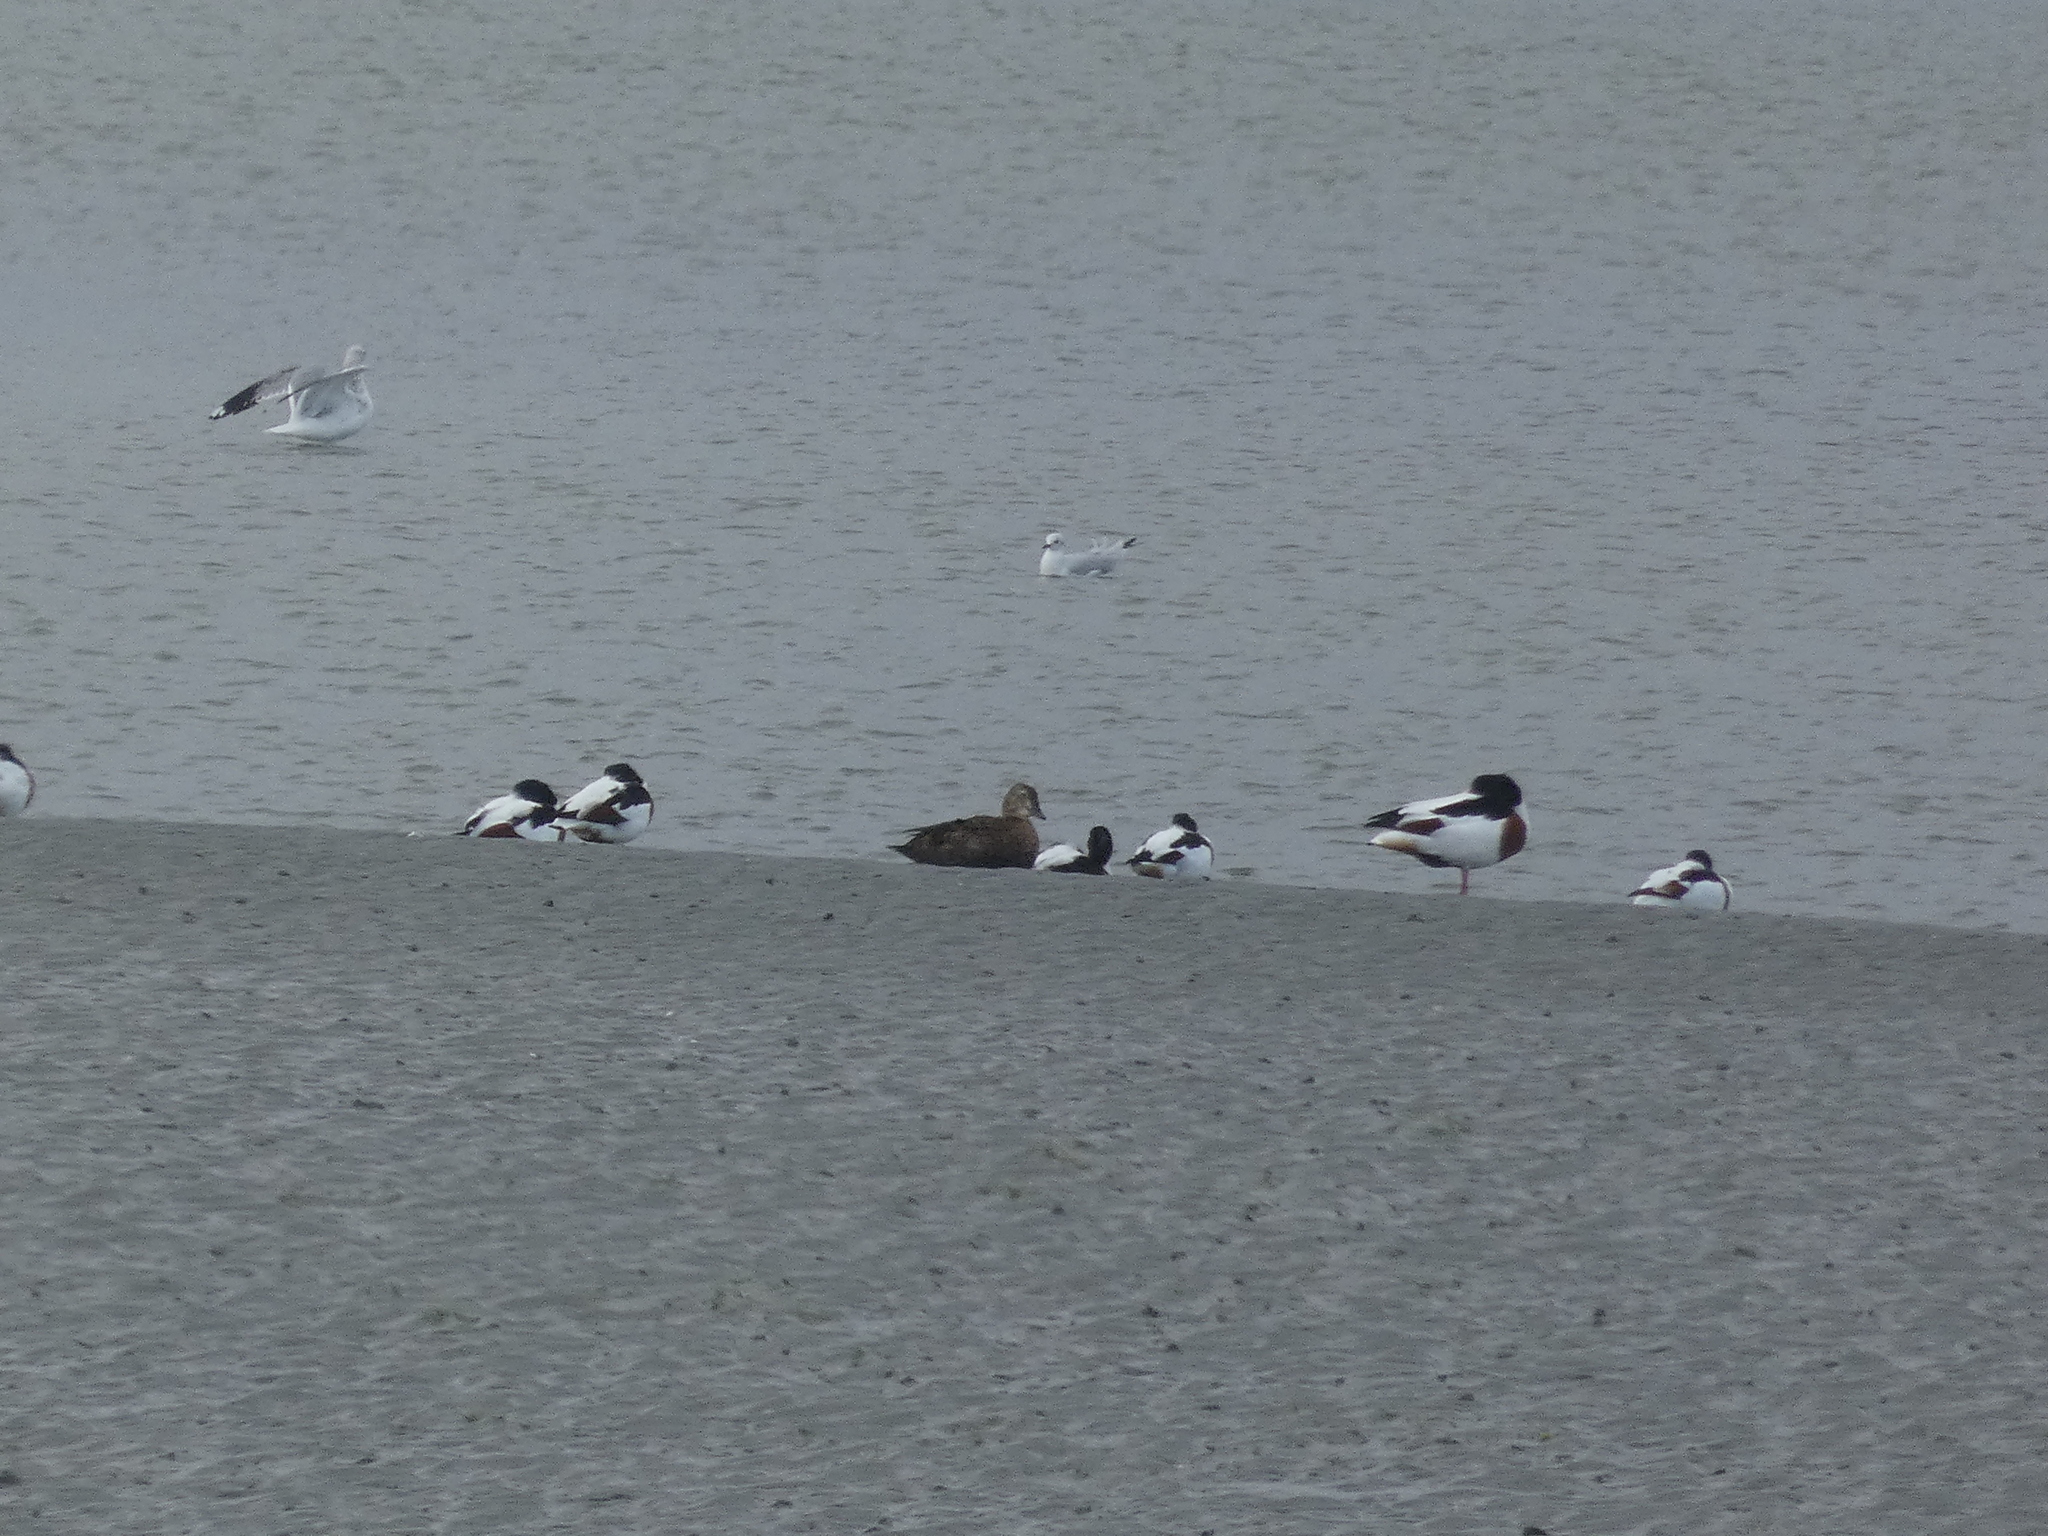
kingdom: Animalia
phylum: Chordata
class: Aves
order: Anseriformes
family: Anatidae
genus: Somateria
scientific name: Somateria spectabilis
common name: King eider
